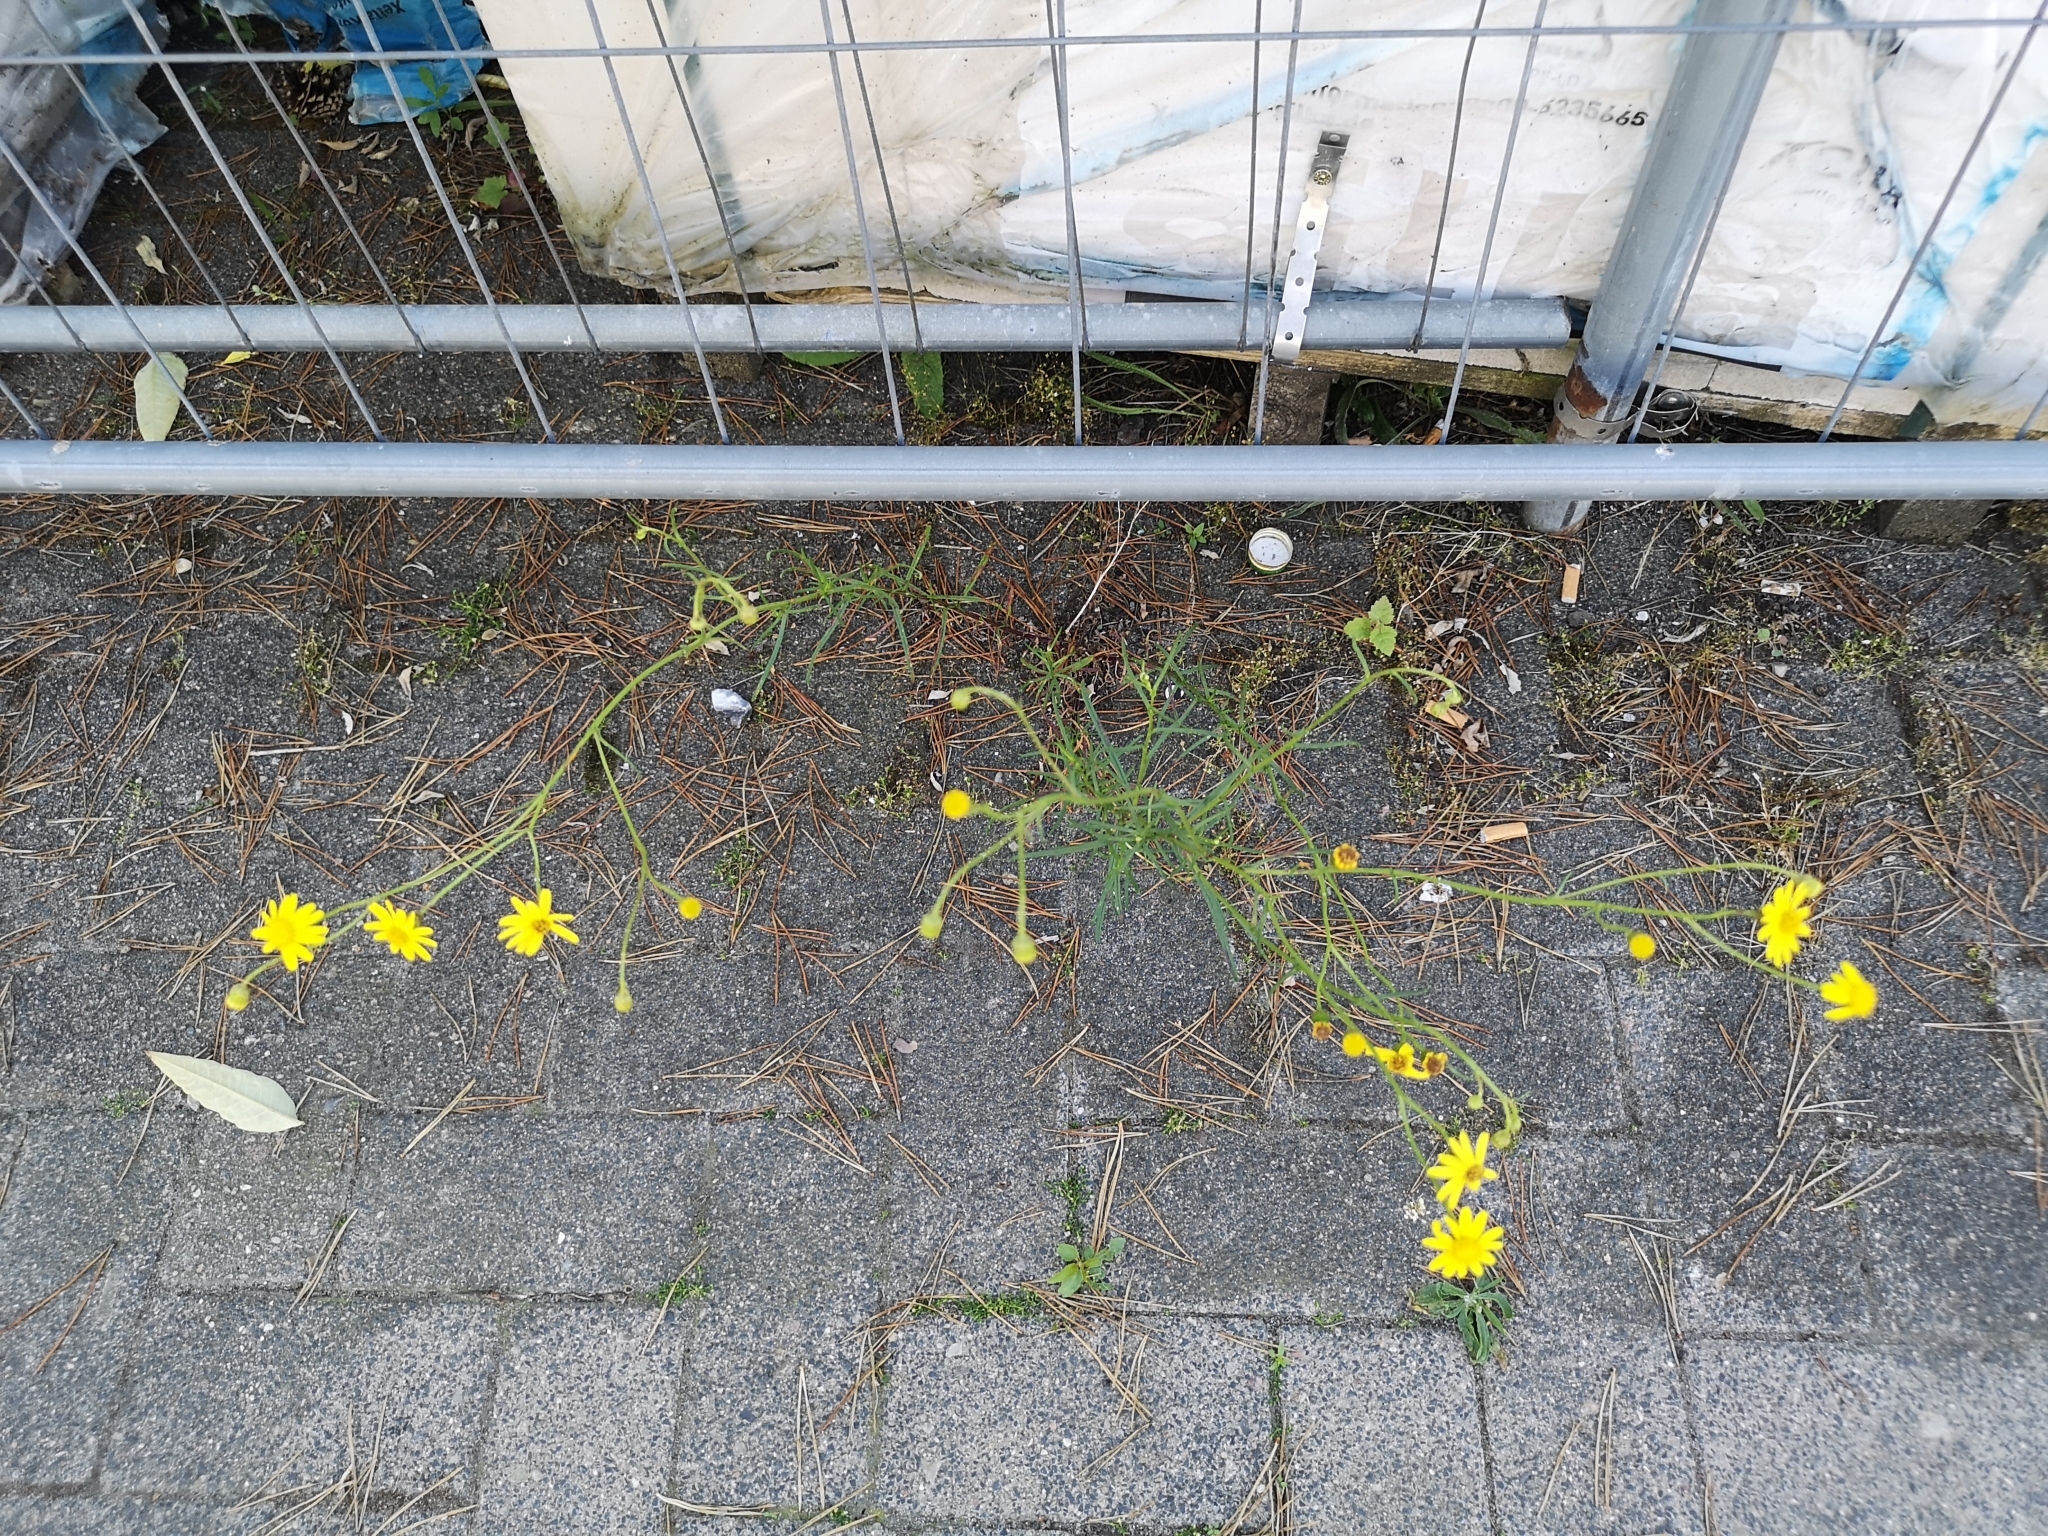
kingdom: Plantae
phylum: Tracheophyta
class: Magnoliopsida
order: Asterales
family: Asteraceae
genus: Senecio
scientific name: Senecio inaequidens
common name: Narrow-leaved ragwort
